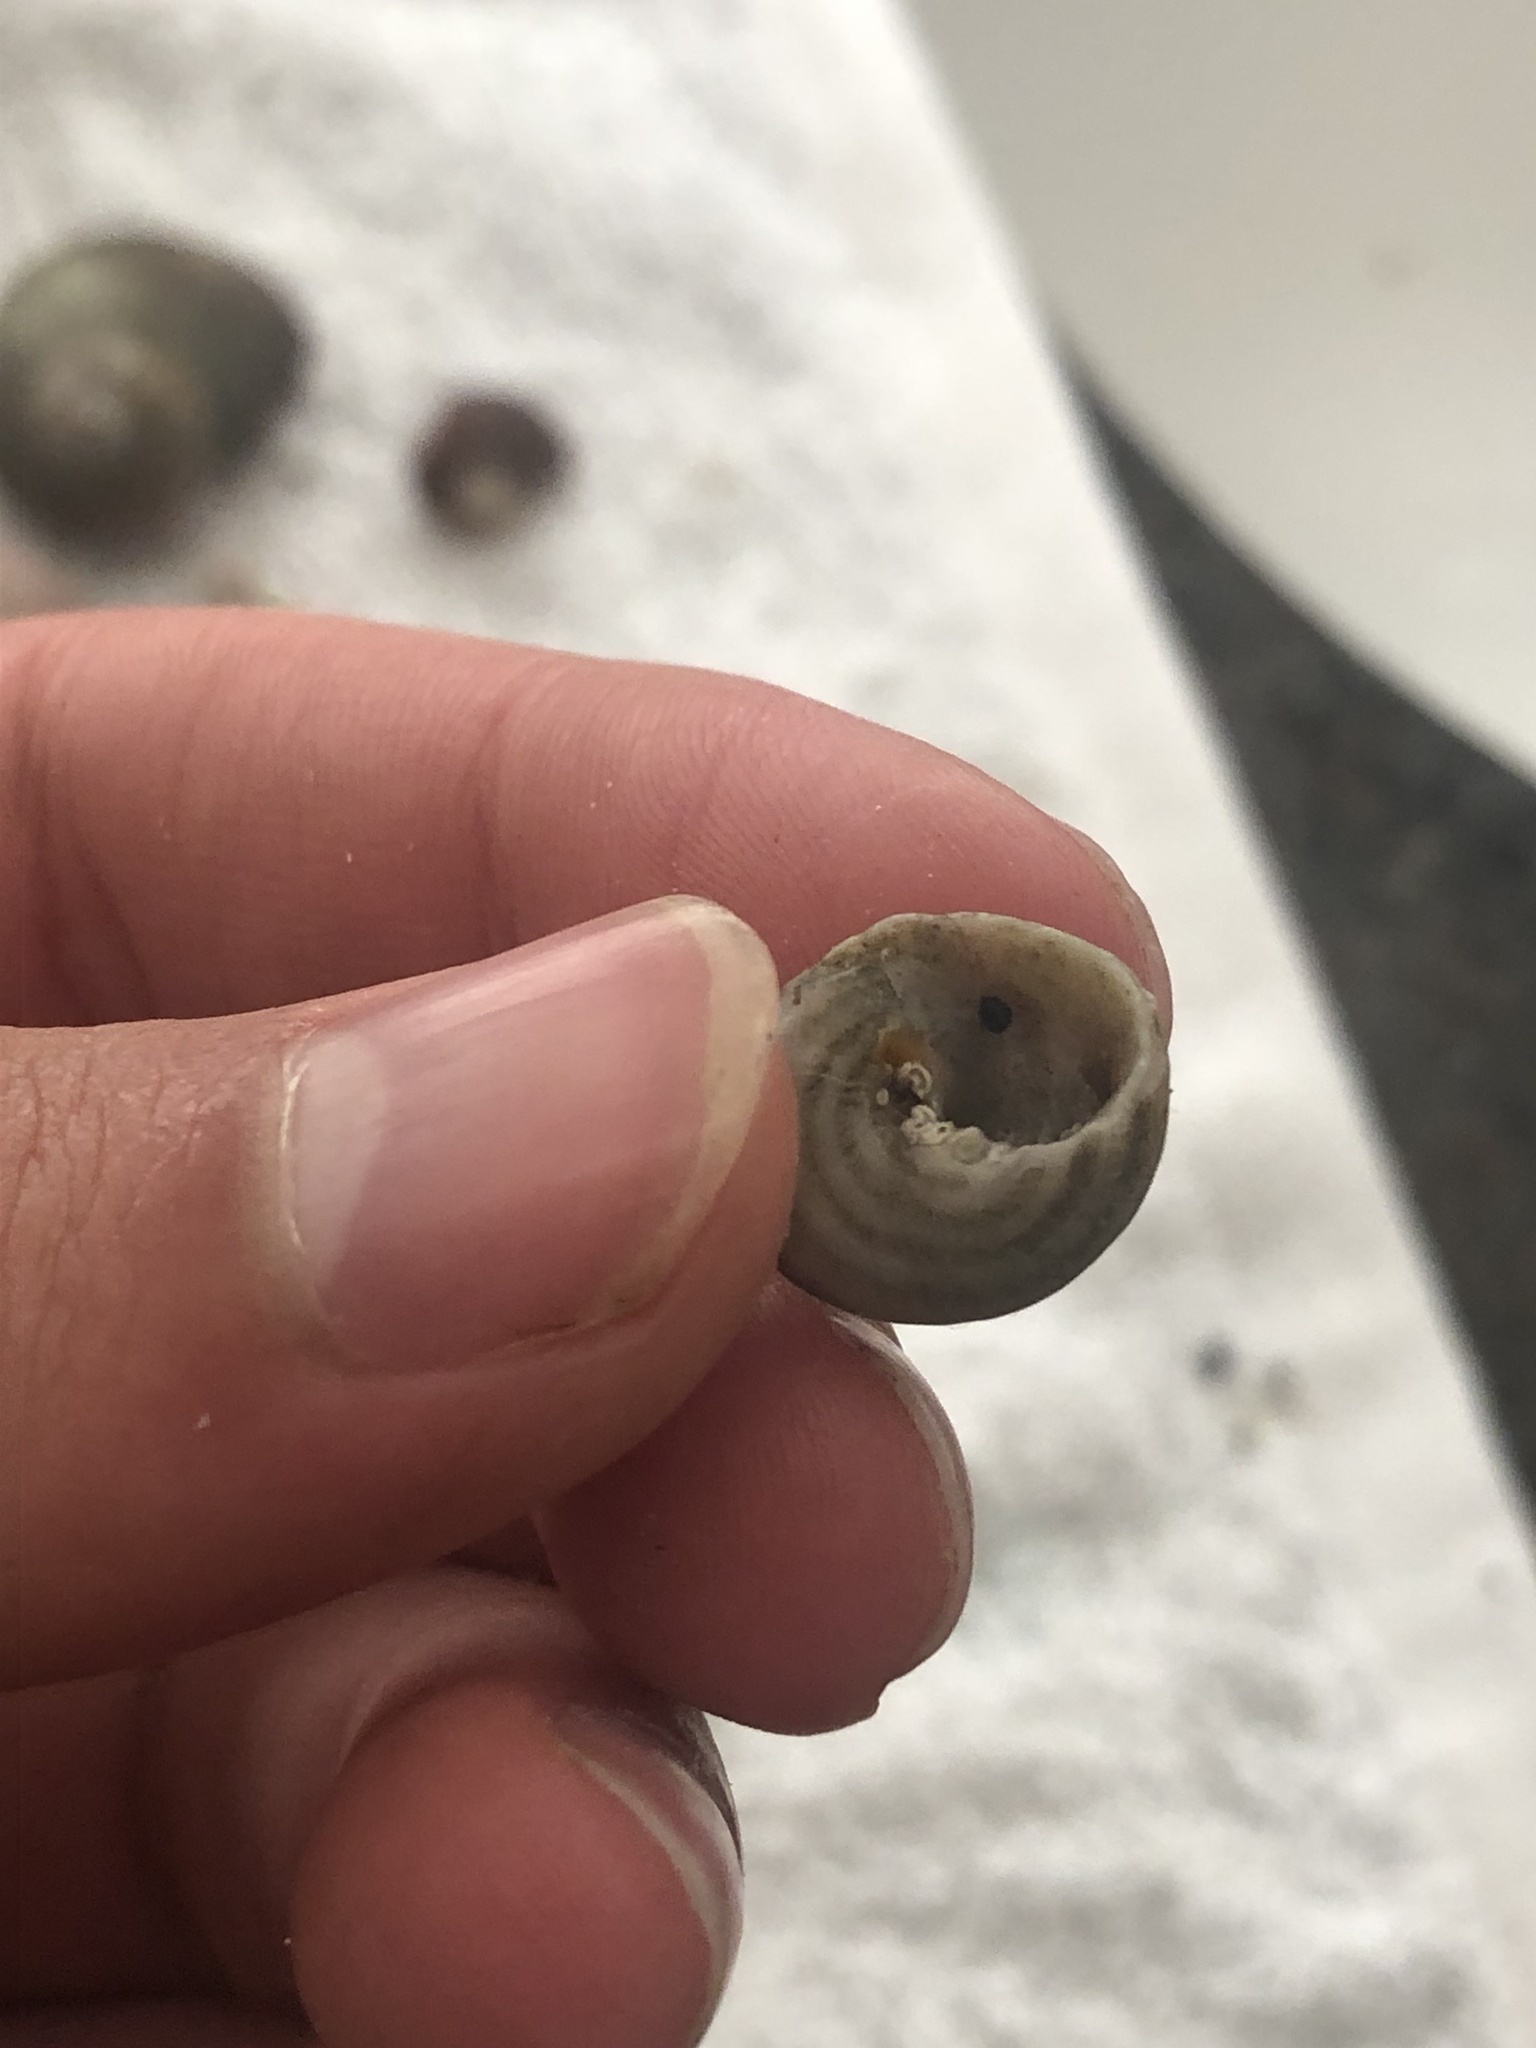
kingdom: Animalia
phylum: Mollusca
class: Gastropoda
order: Trochida
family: Tegulidae
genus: Tegula
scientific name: Tegula aureotincta
